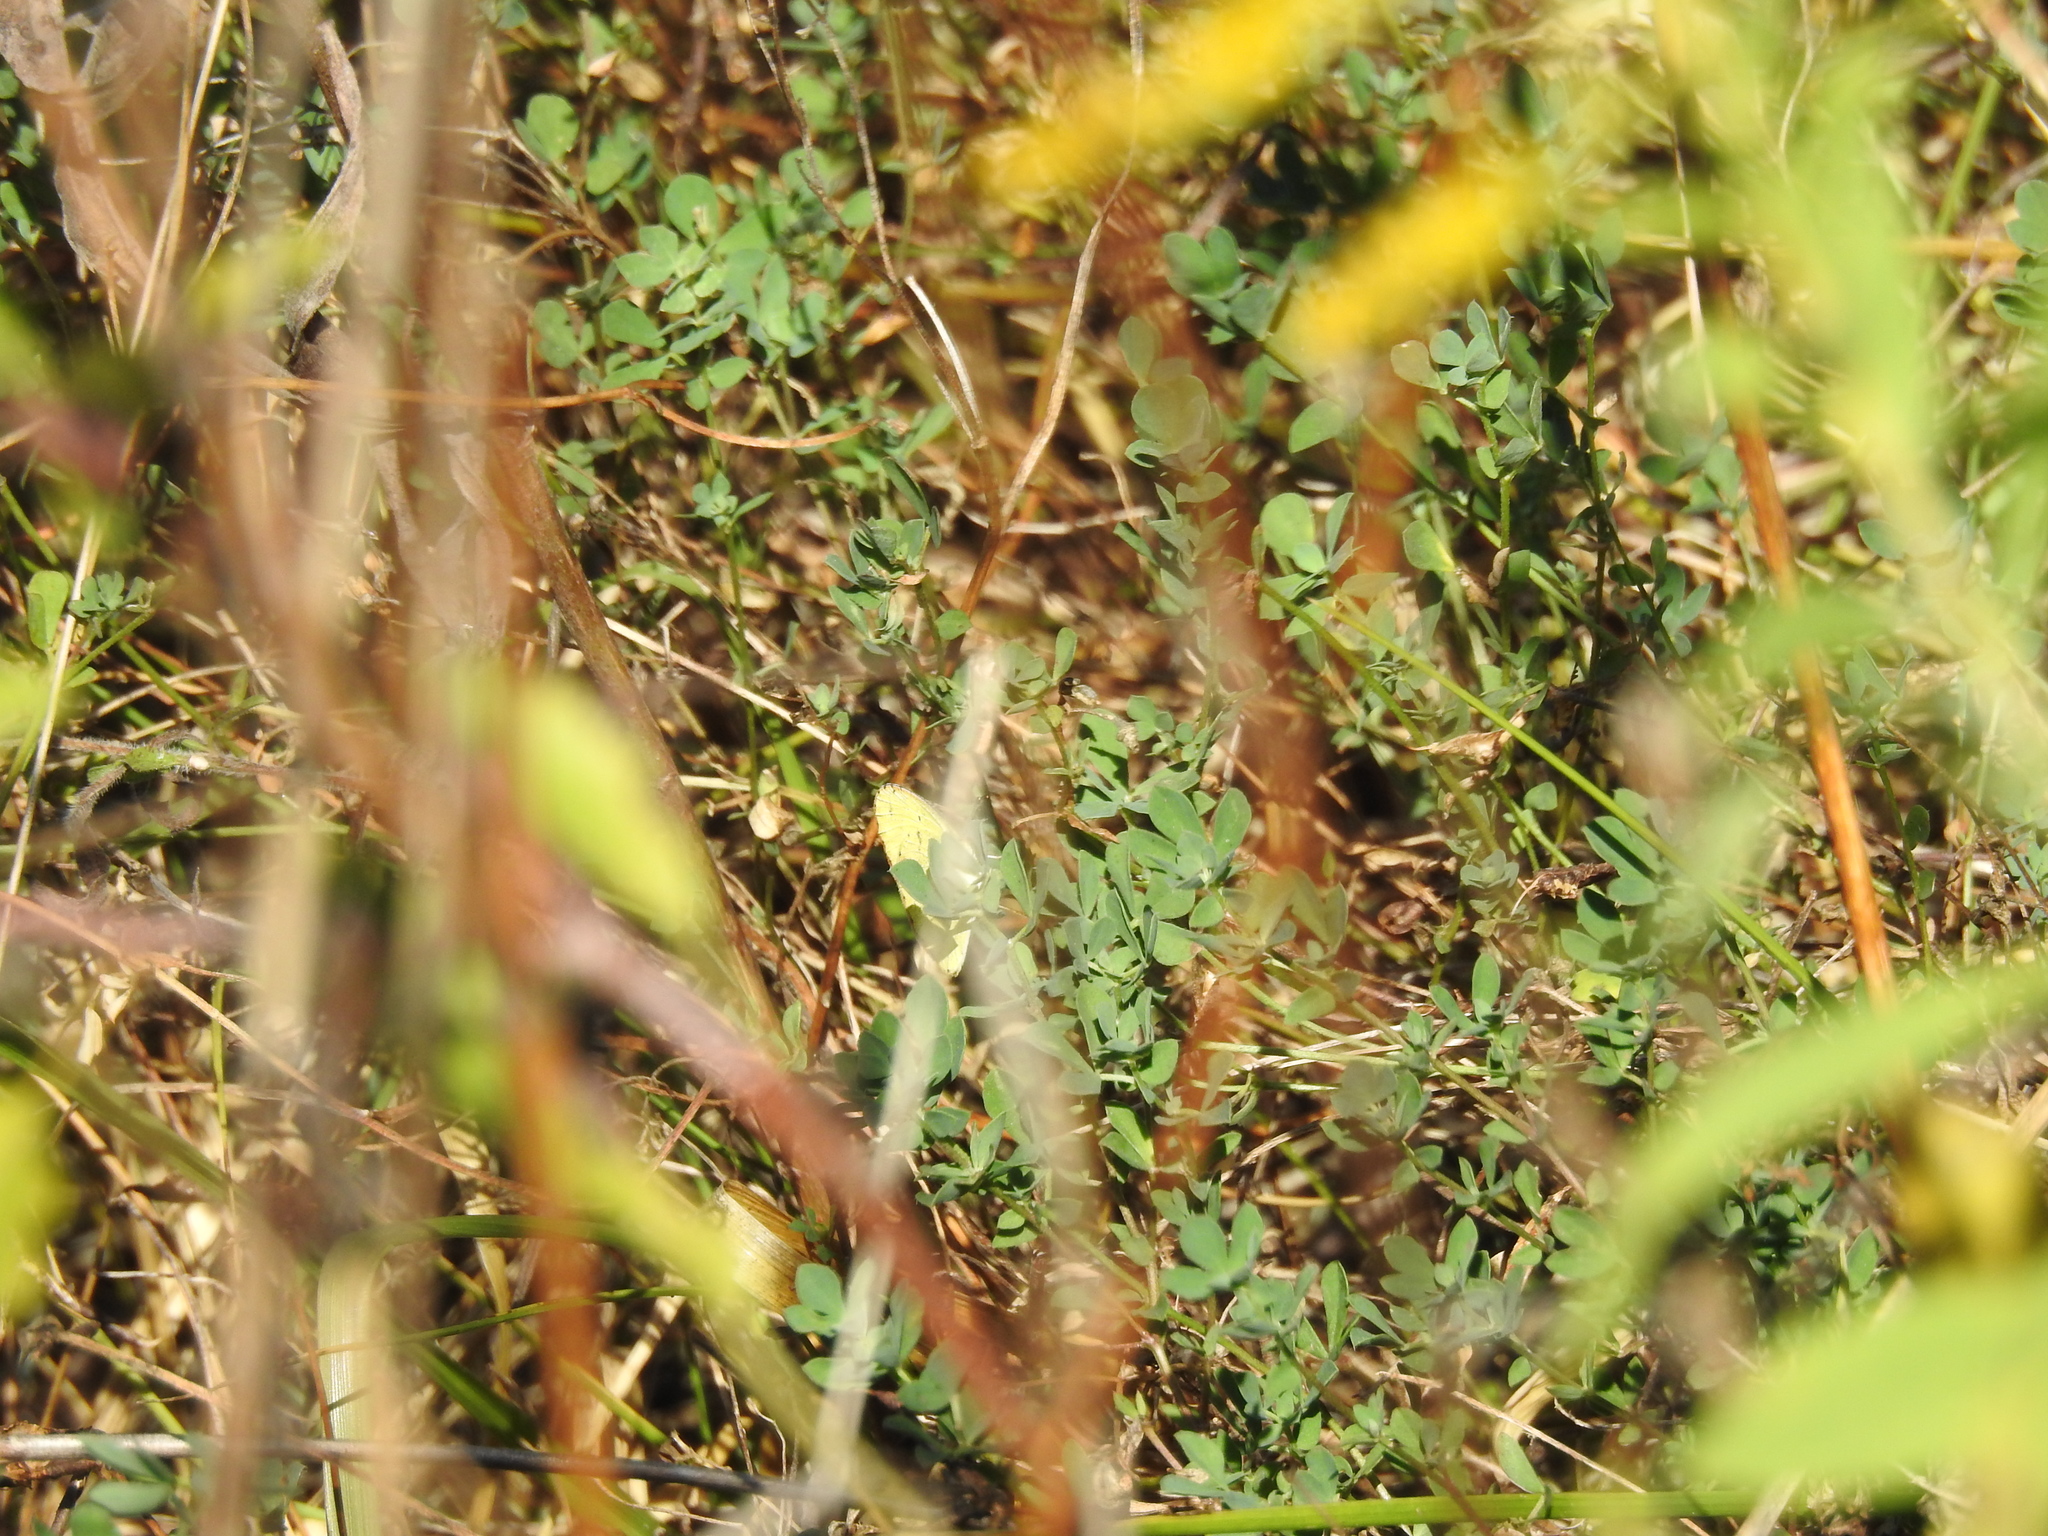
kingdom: Animalia
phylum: Arthropoda
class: Insecta
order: Lepidoptera
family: Pieridae
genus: Pyrisitia
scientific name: Pyrisitia lisa
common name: Little yellow
